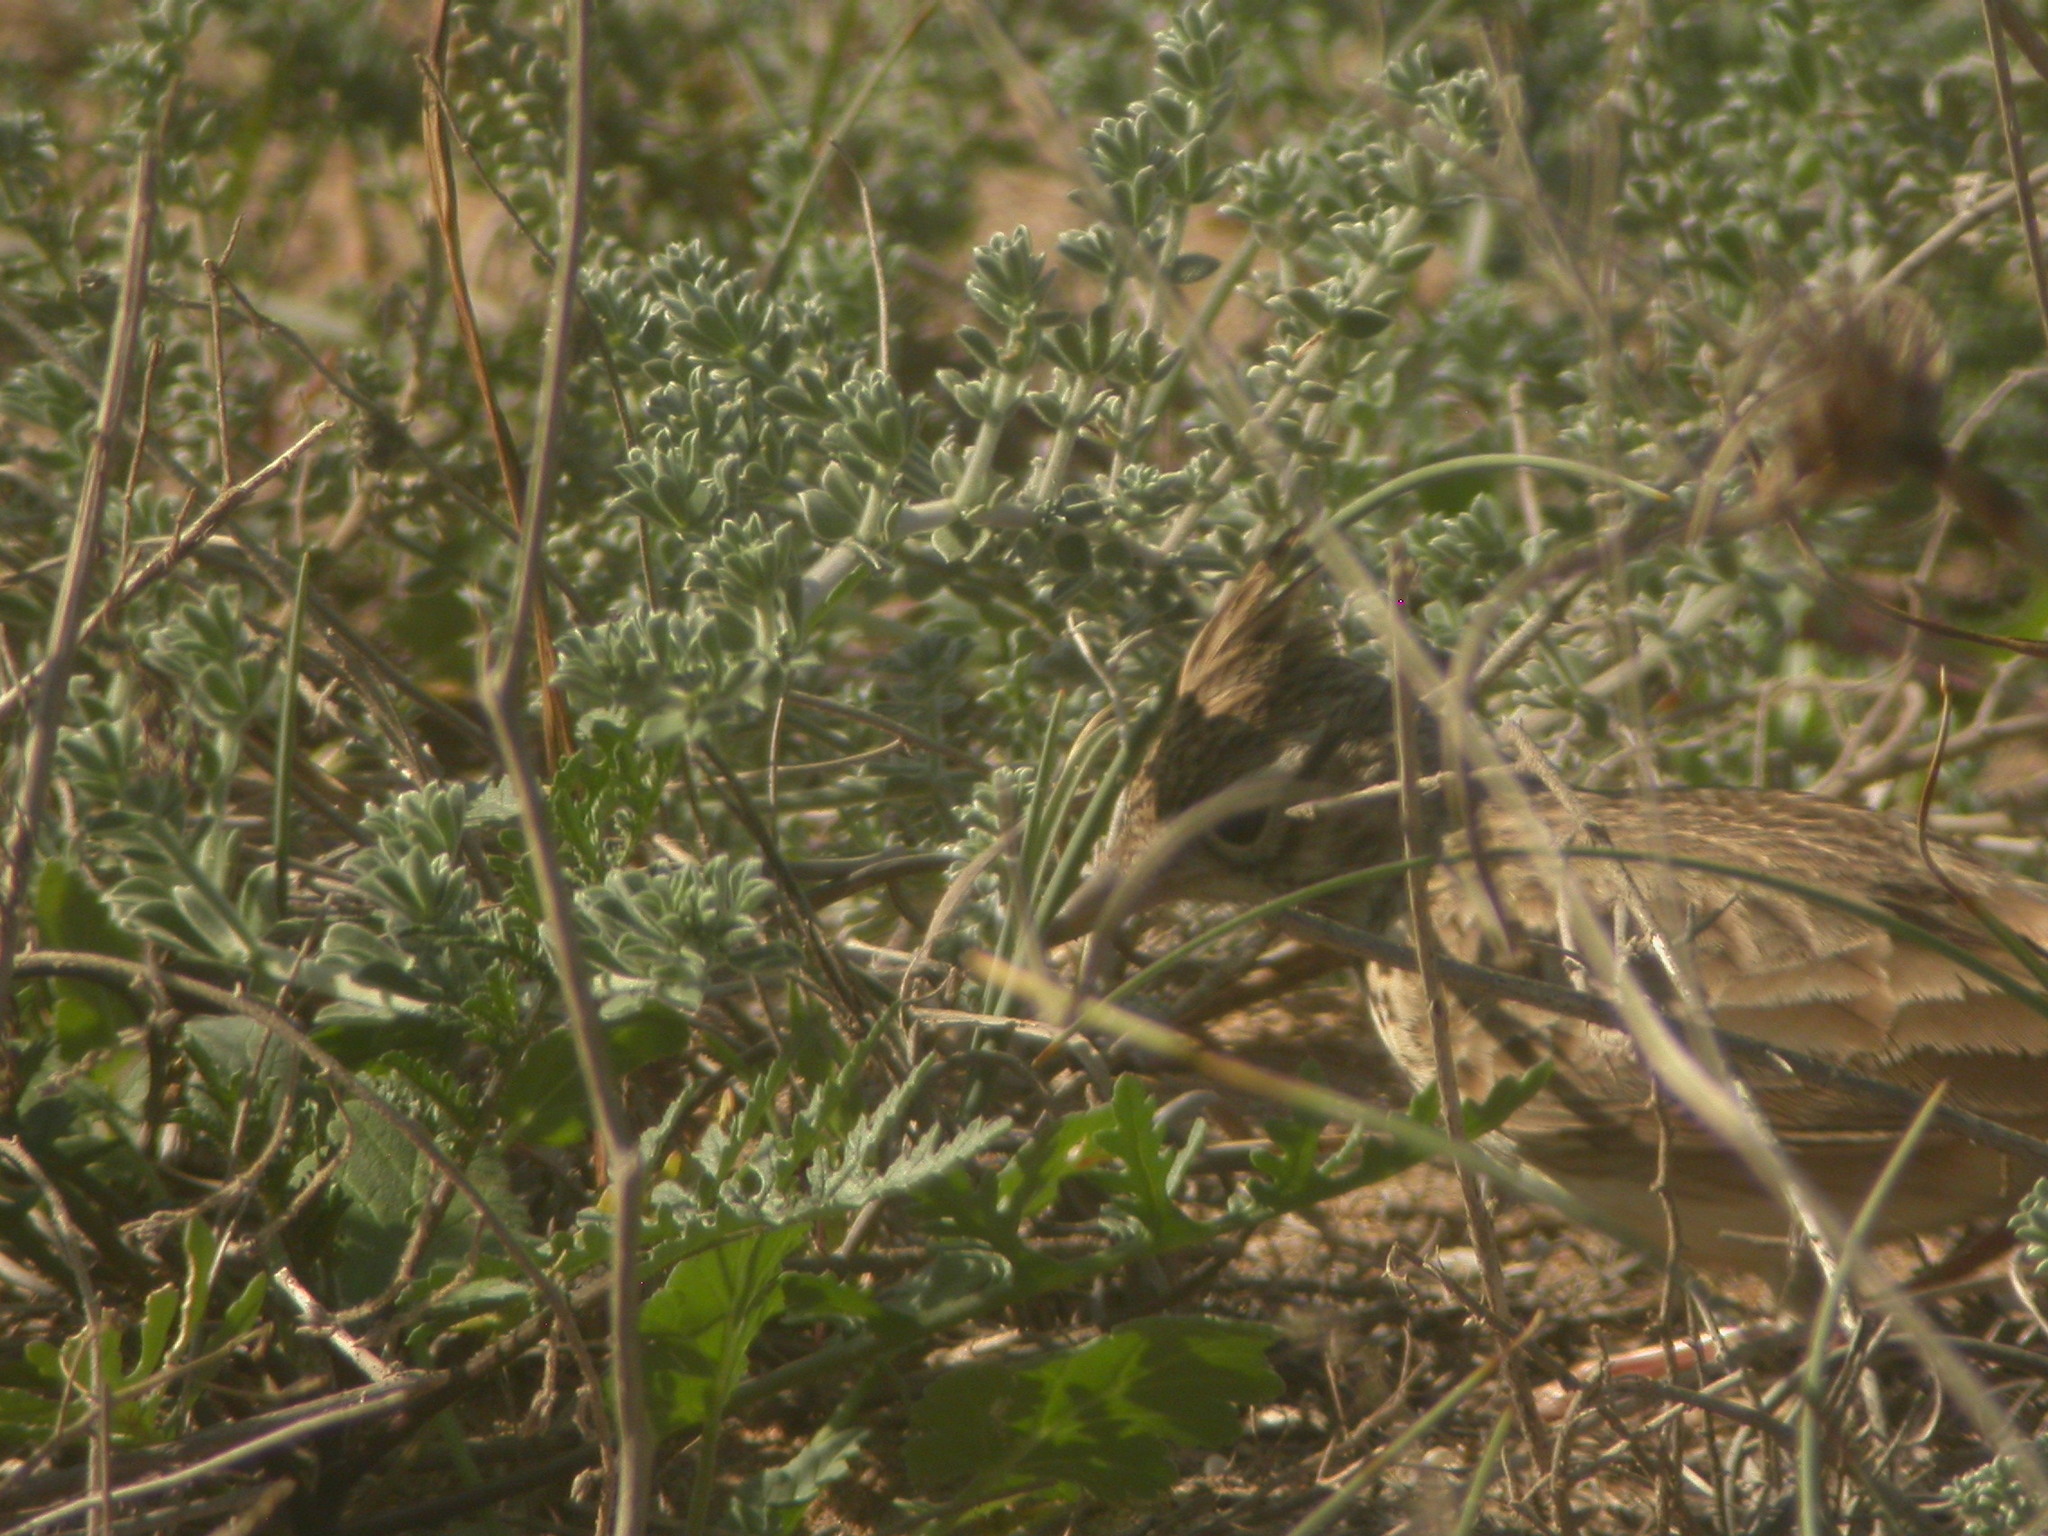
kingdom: Animalia
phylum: Chordata
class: Aves
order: Passeriformes
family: Alaudidae
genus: Galerida
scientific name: Galerida theklae
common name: Thekla lark
